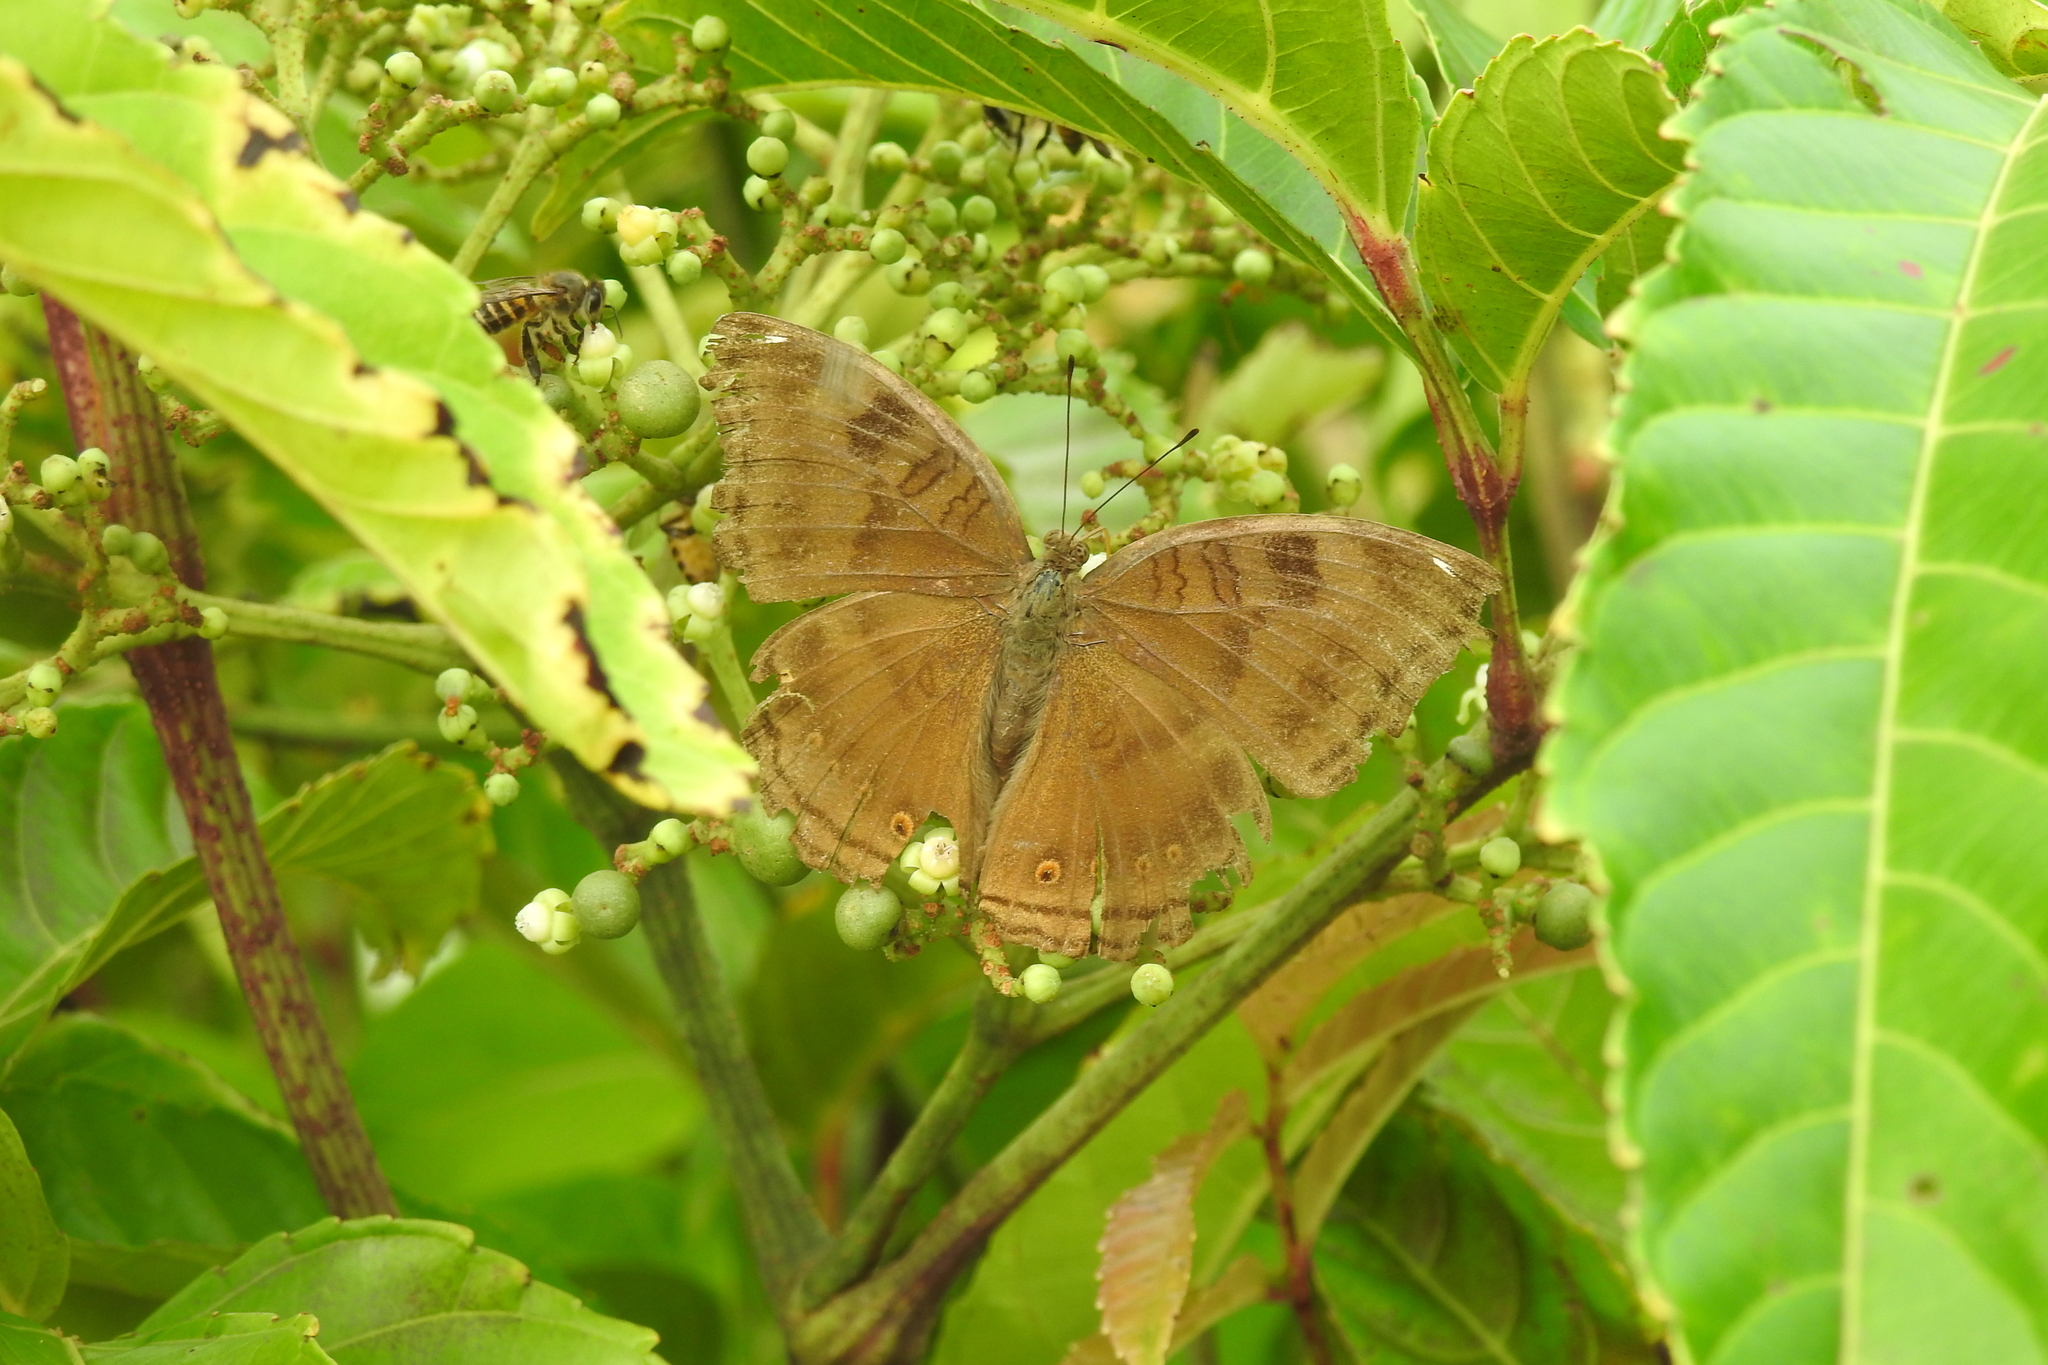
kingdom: Animalia
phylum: Arthropoda
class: Insecta
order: Lepidoptera
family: Nymphalidae
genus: Junonia
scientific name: Junonia iphita
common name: Chocolate pansy
